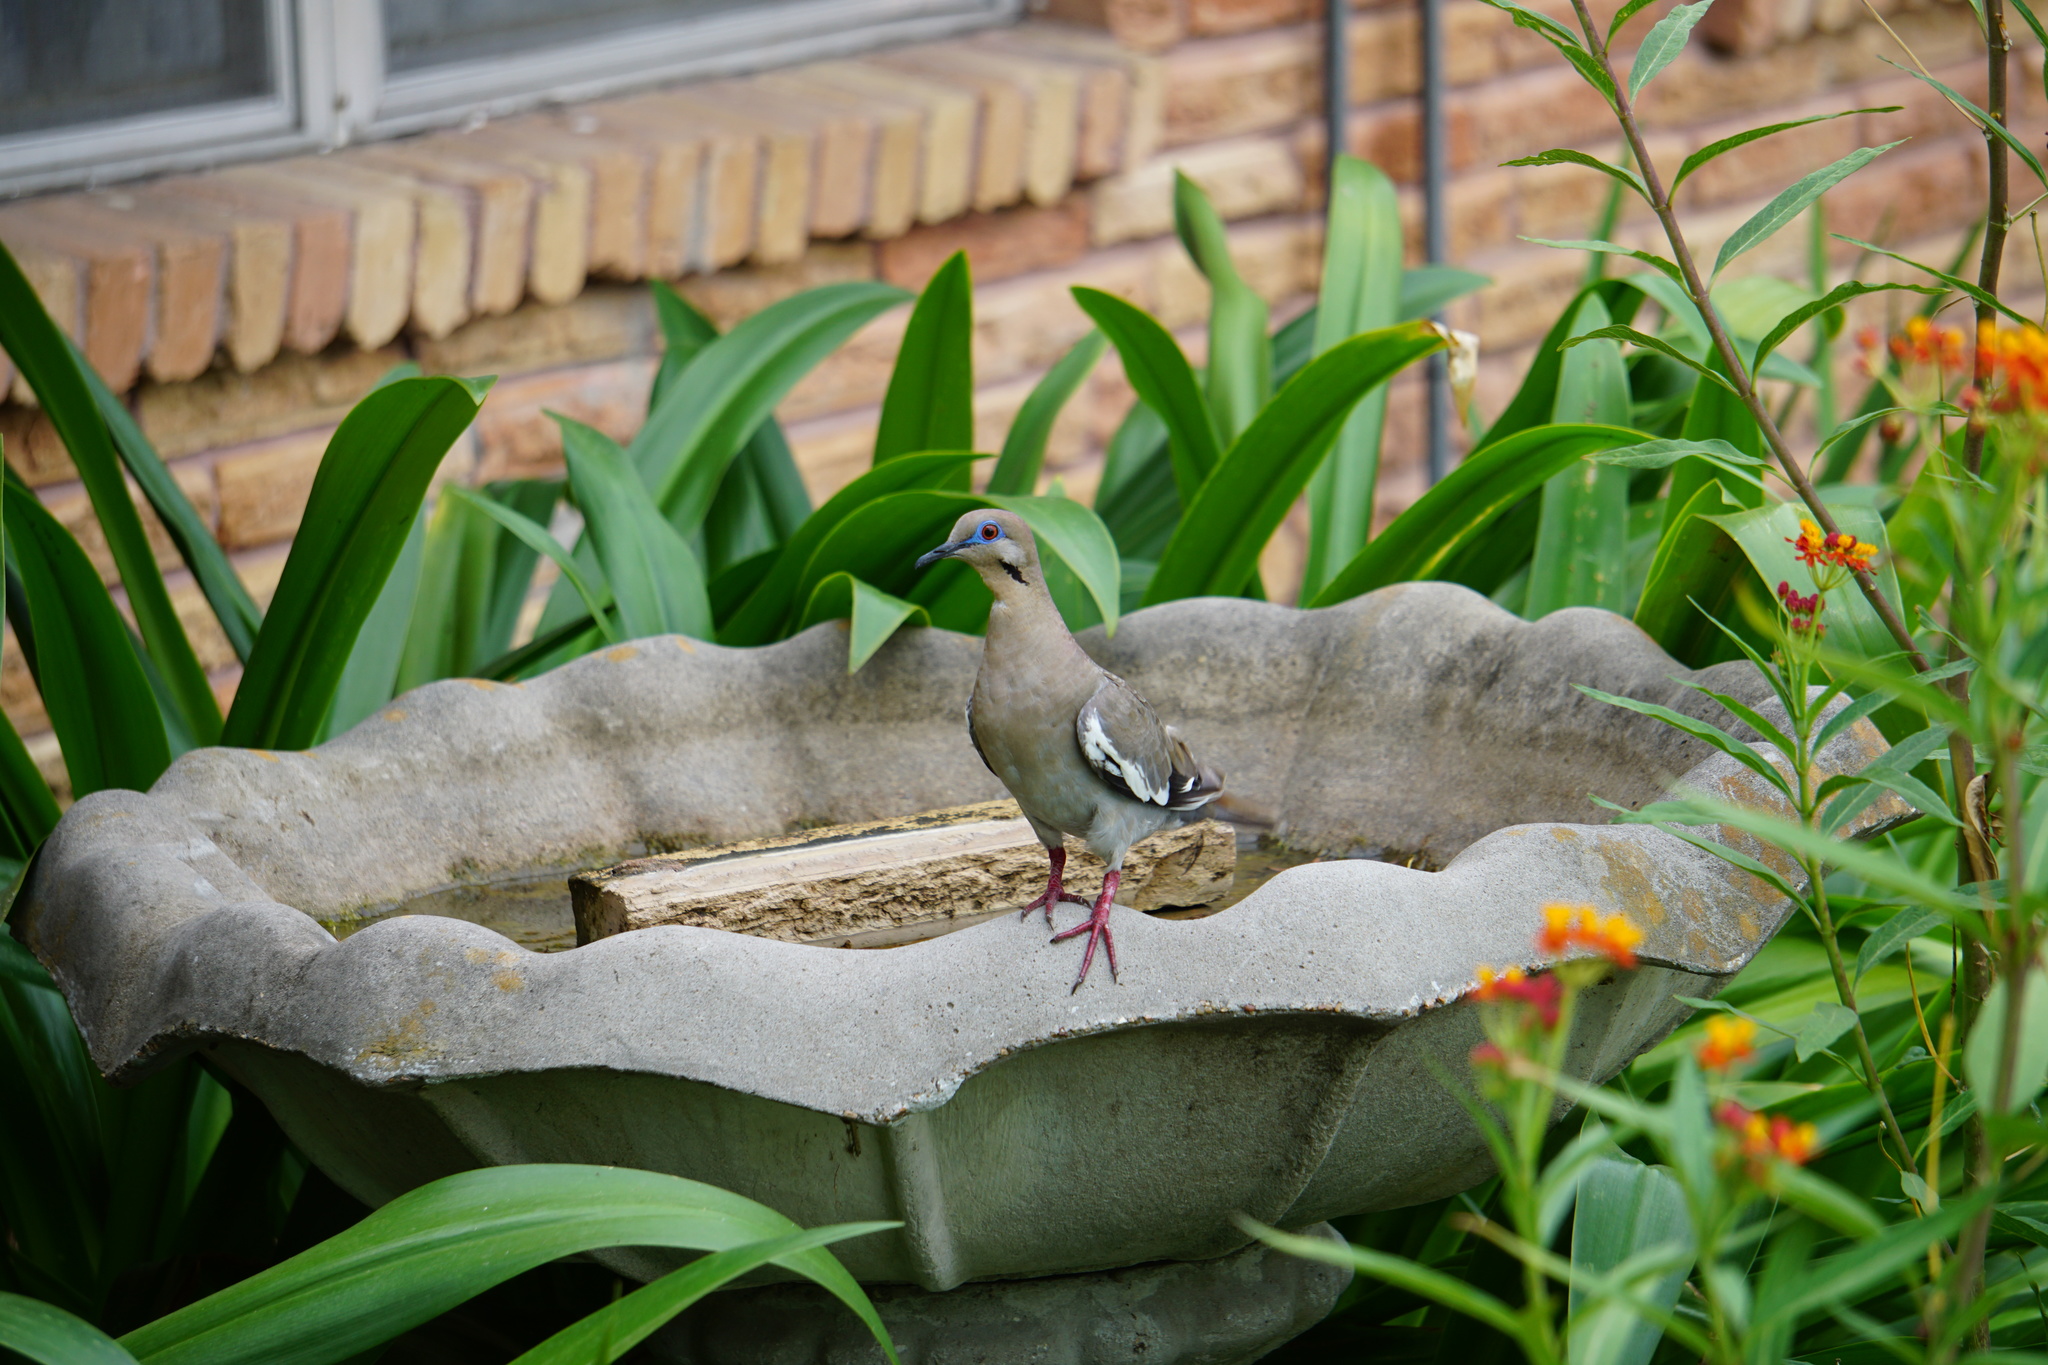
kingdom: Animalia
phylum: Chordata
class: Aves
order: Columbiformes
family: Columbidae
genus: Zenaida
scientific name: Zenaida asiatica
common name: White-winged dove
